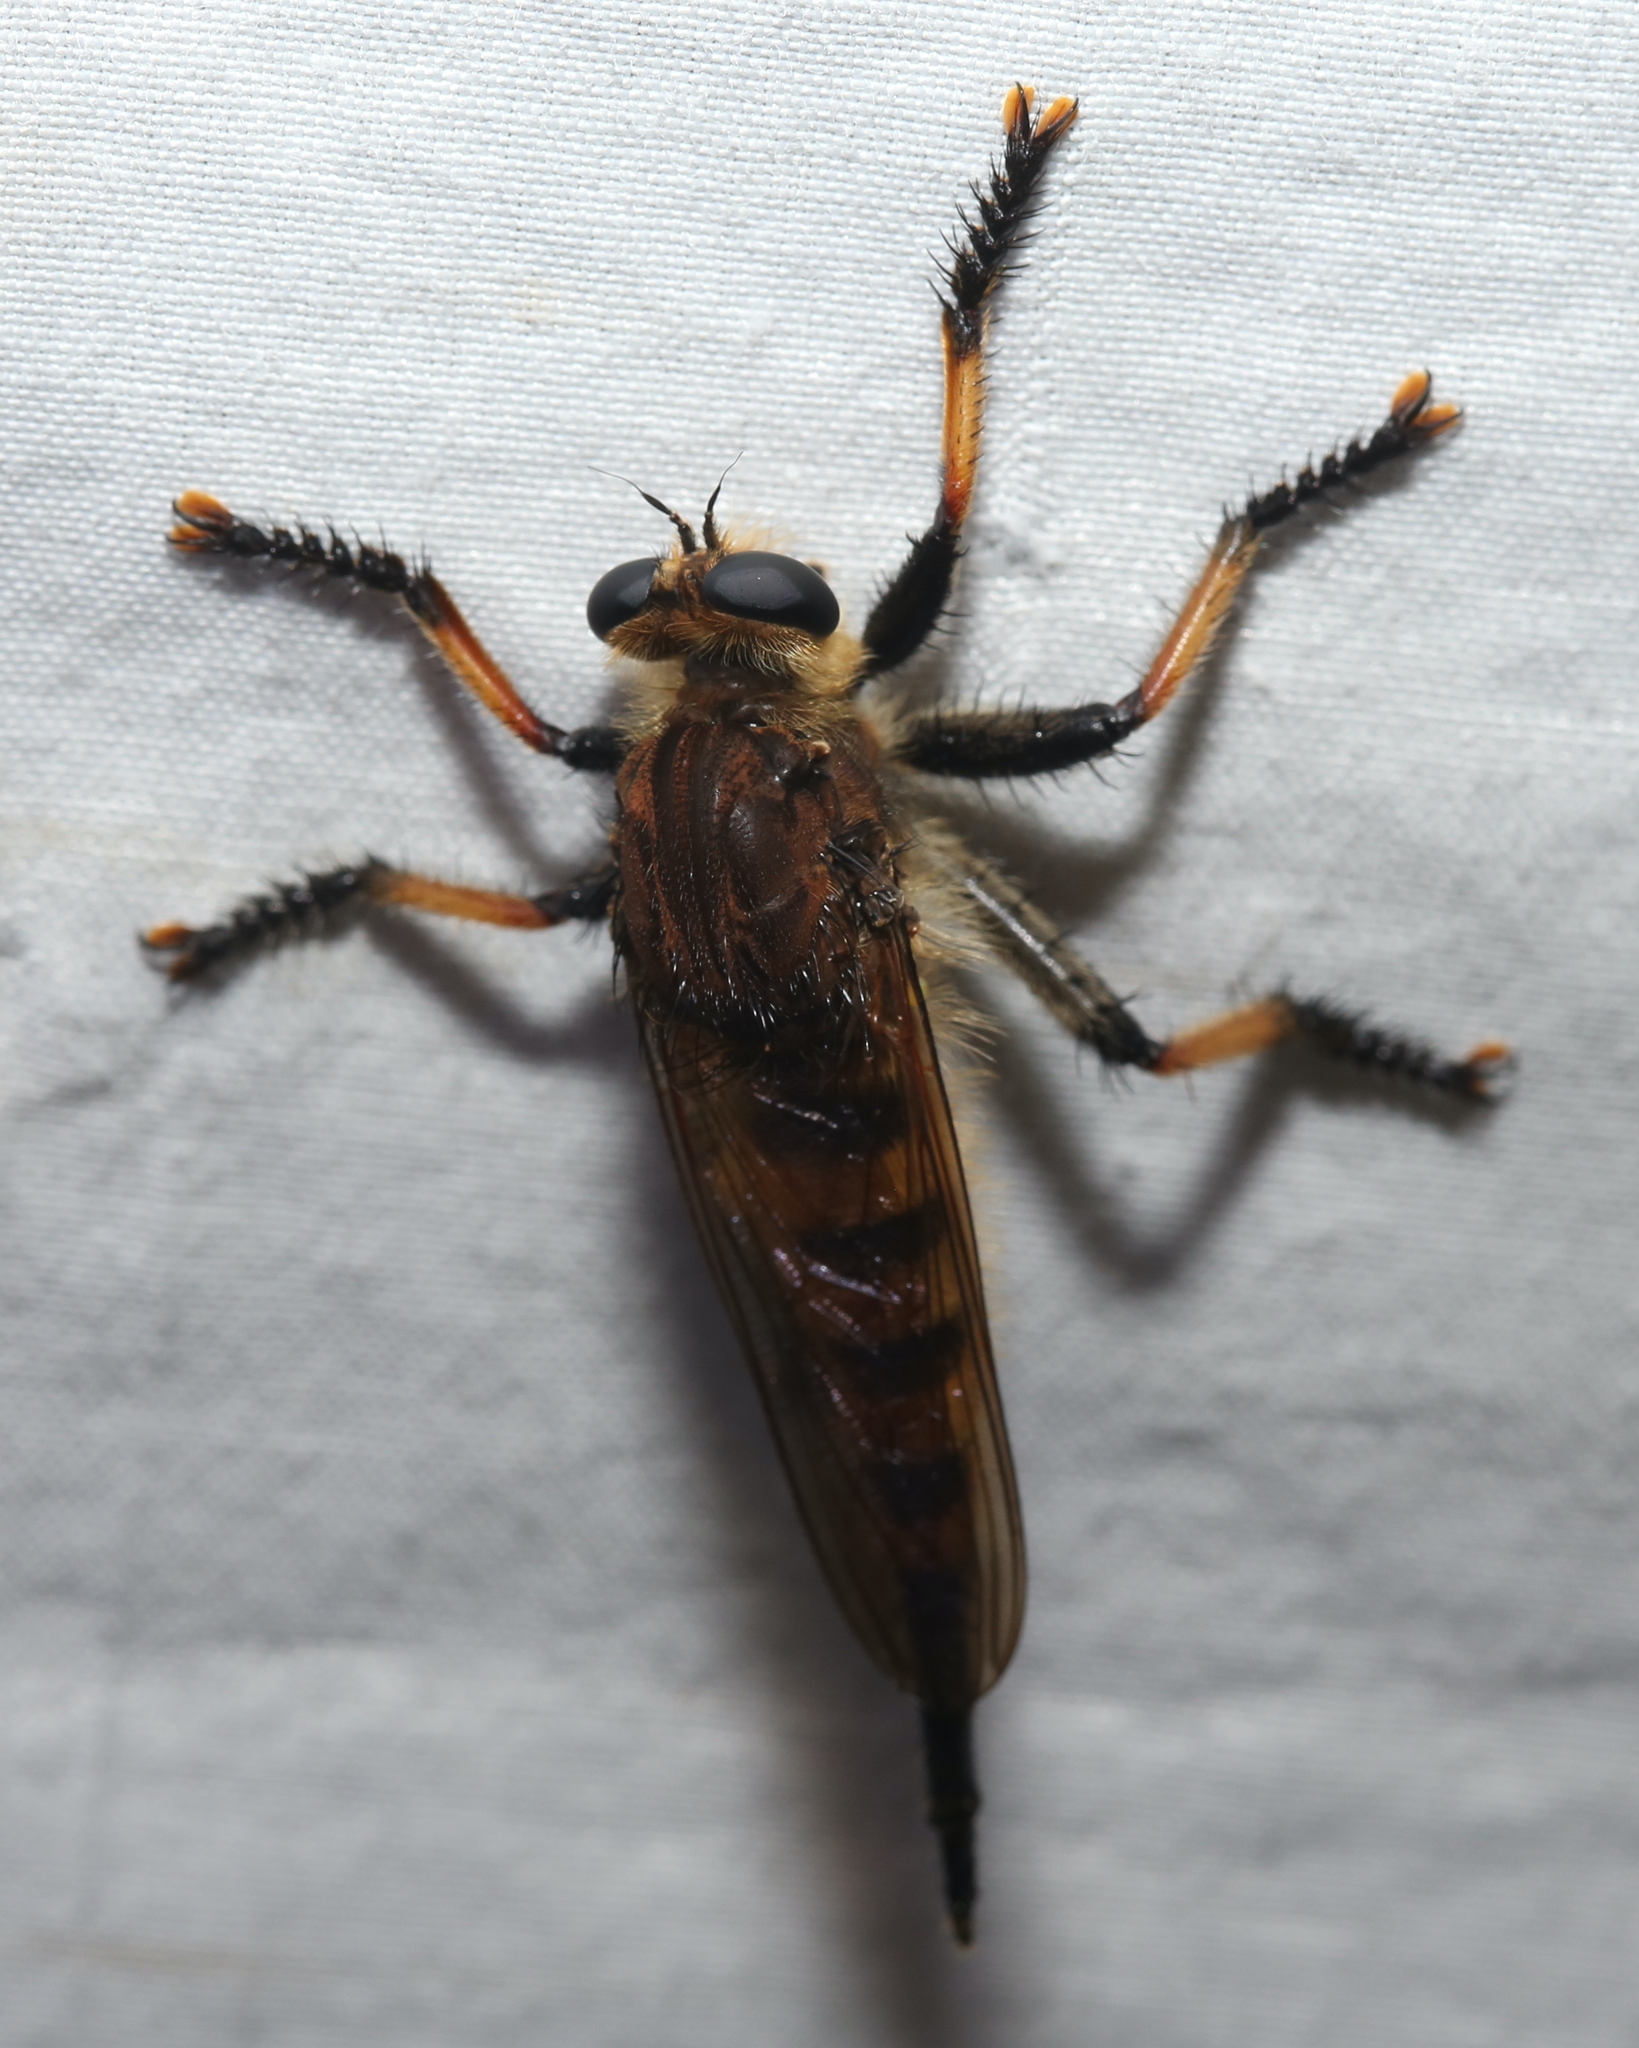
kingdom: Animalia
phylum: Arthropoda
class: Insecta
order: Diptera
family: Asilidae
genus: Promachus
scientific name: Promachus rufipes
